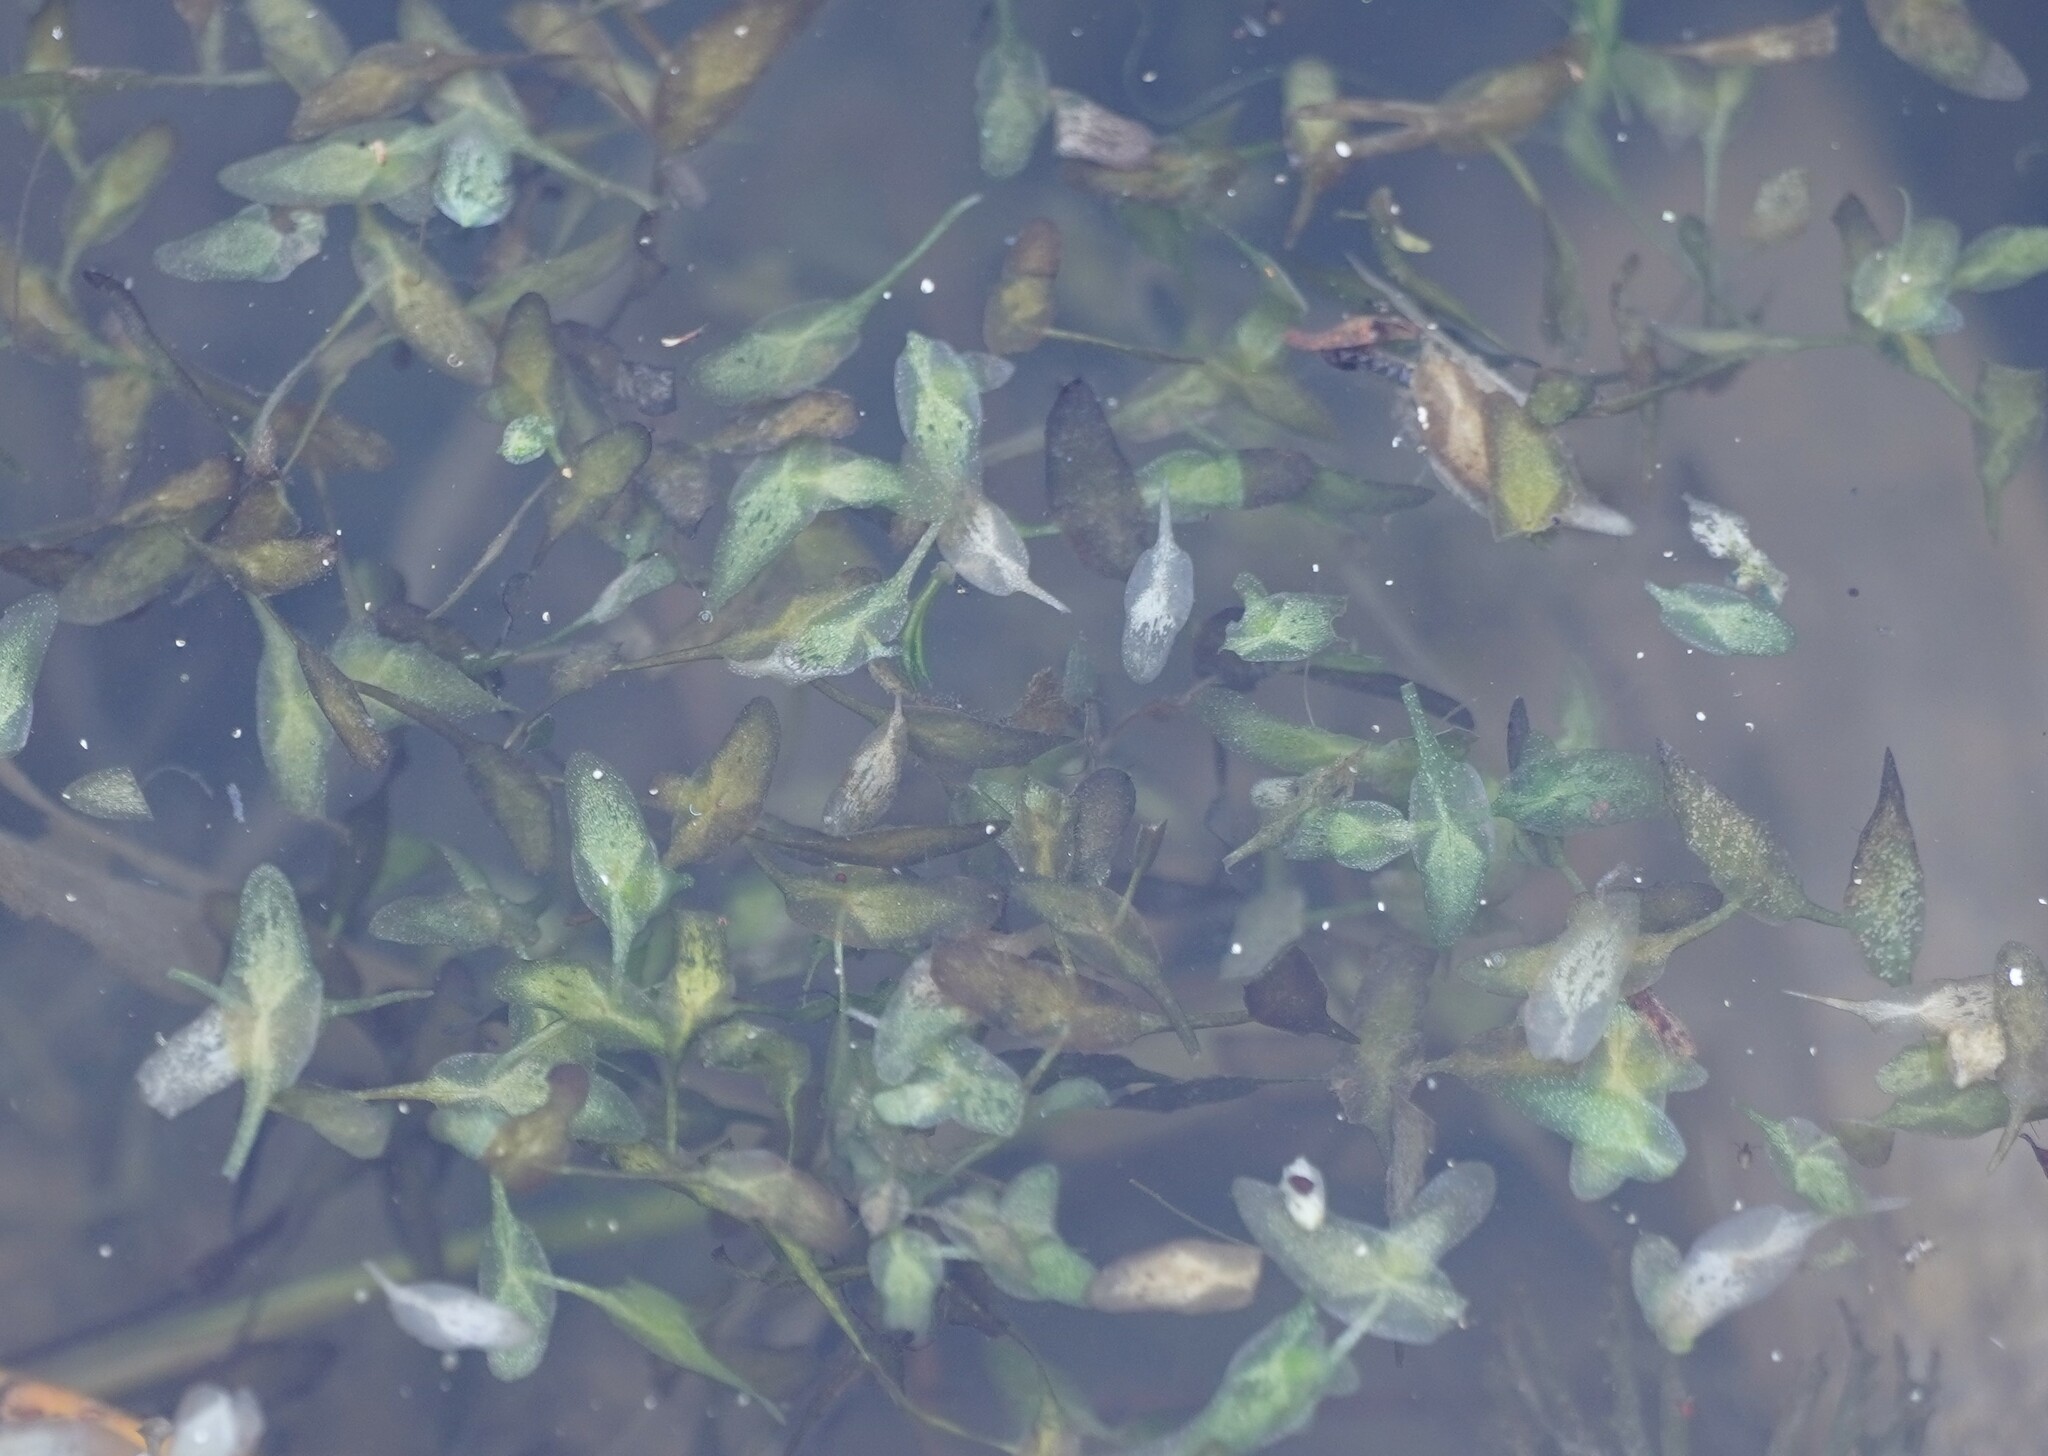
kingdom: Plantae
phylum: Tracheophyta
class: Liliopsida
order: Alismatales
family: Araceae
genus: Lemna
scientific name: Lemna trisulca
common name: Ivy-leaved duckweed
